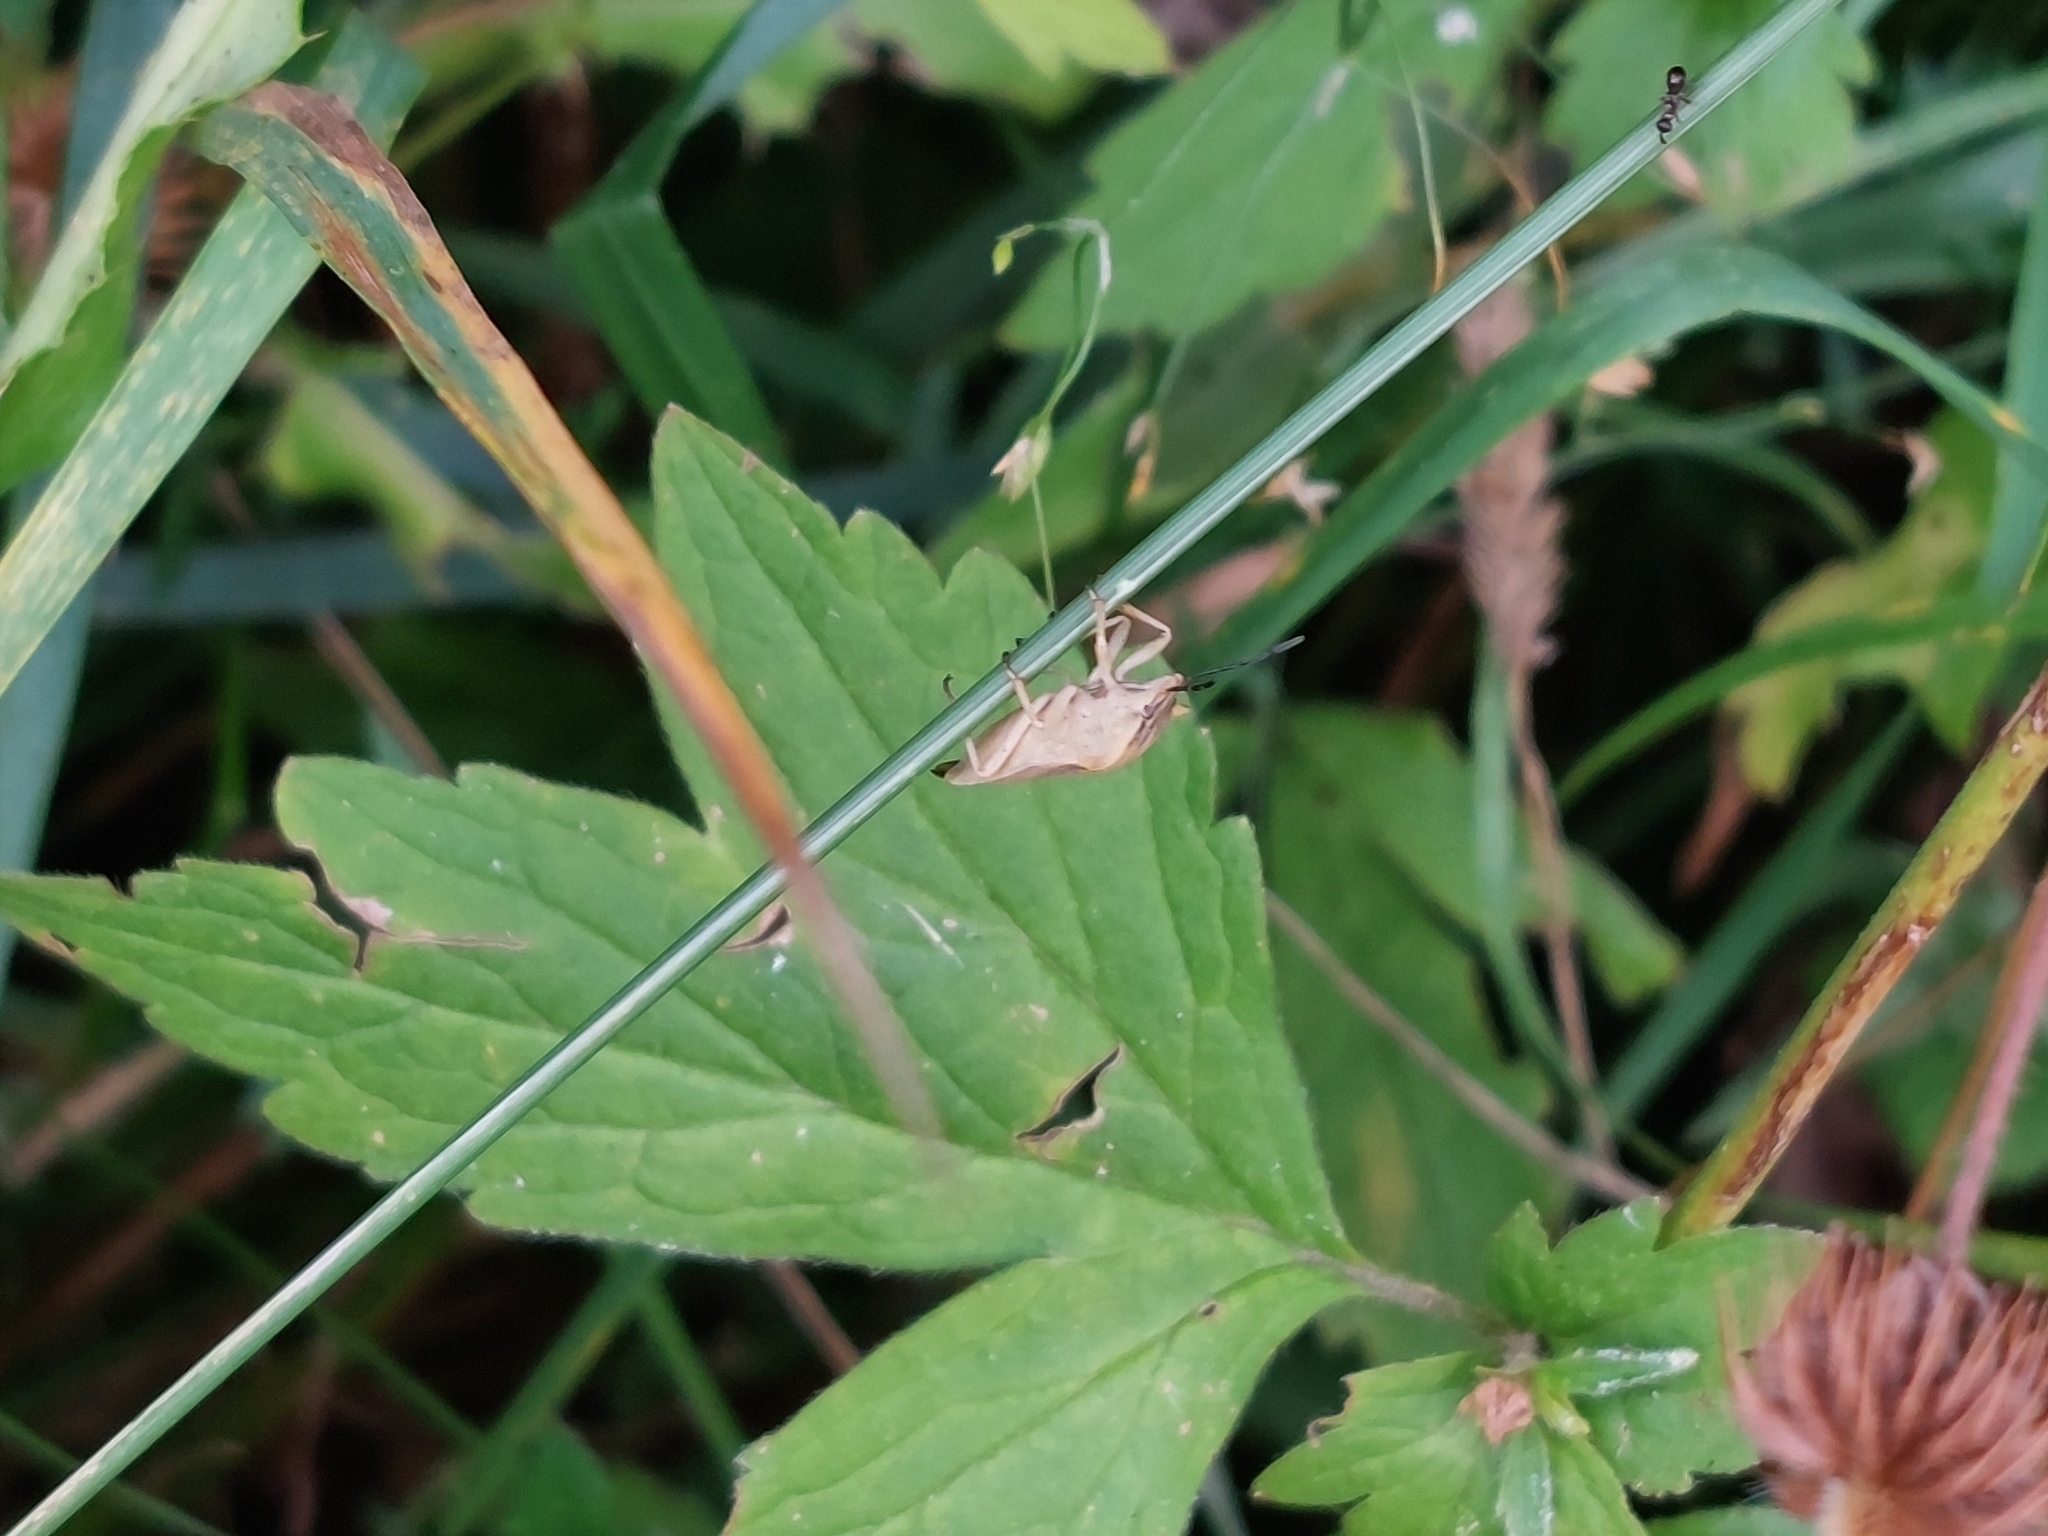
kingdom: Animalia
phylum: Arthropoda
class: Insecta
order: Hemiptera
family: Pentatomidae
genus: Carpocoris
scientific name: Carpocoris fuscispinus
